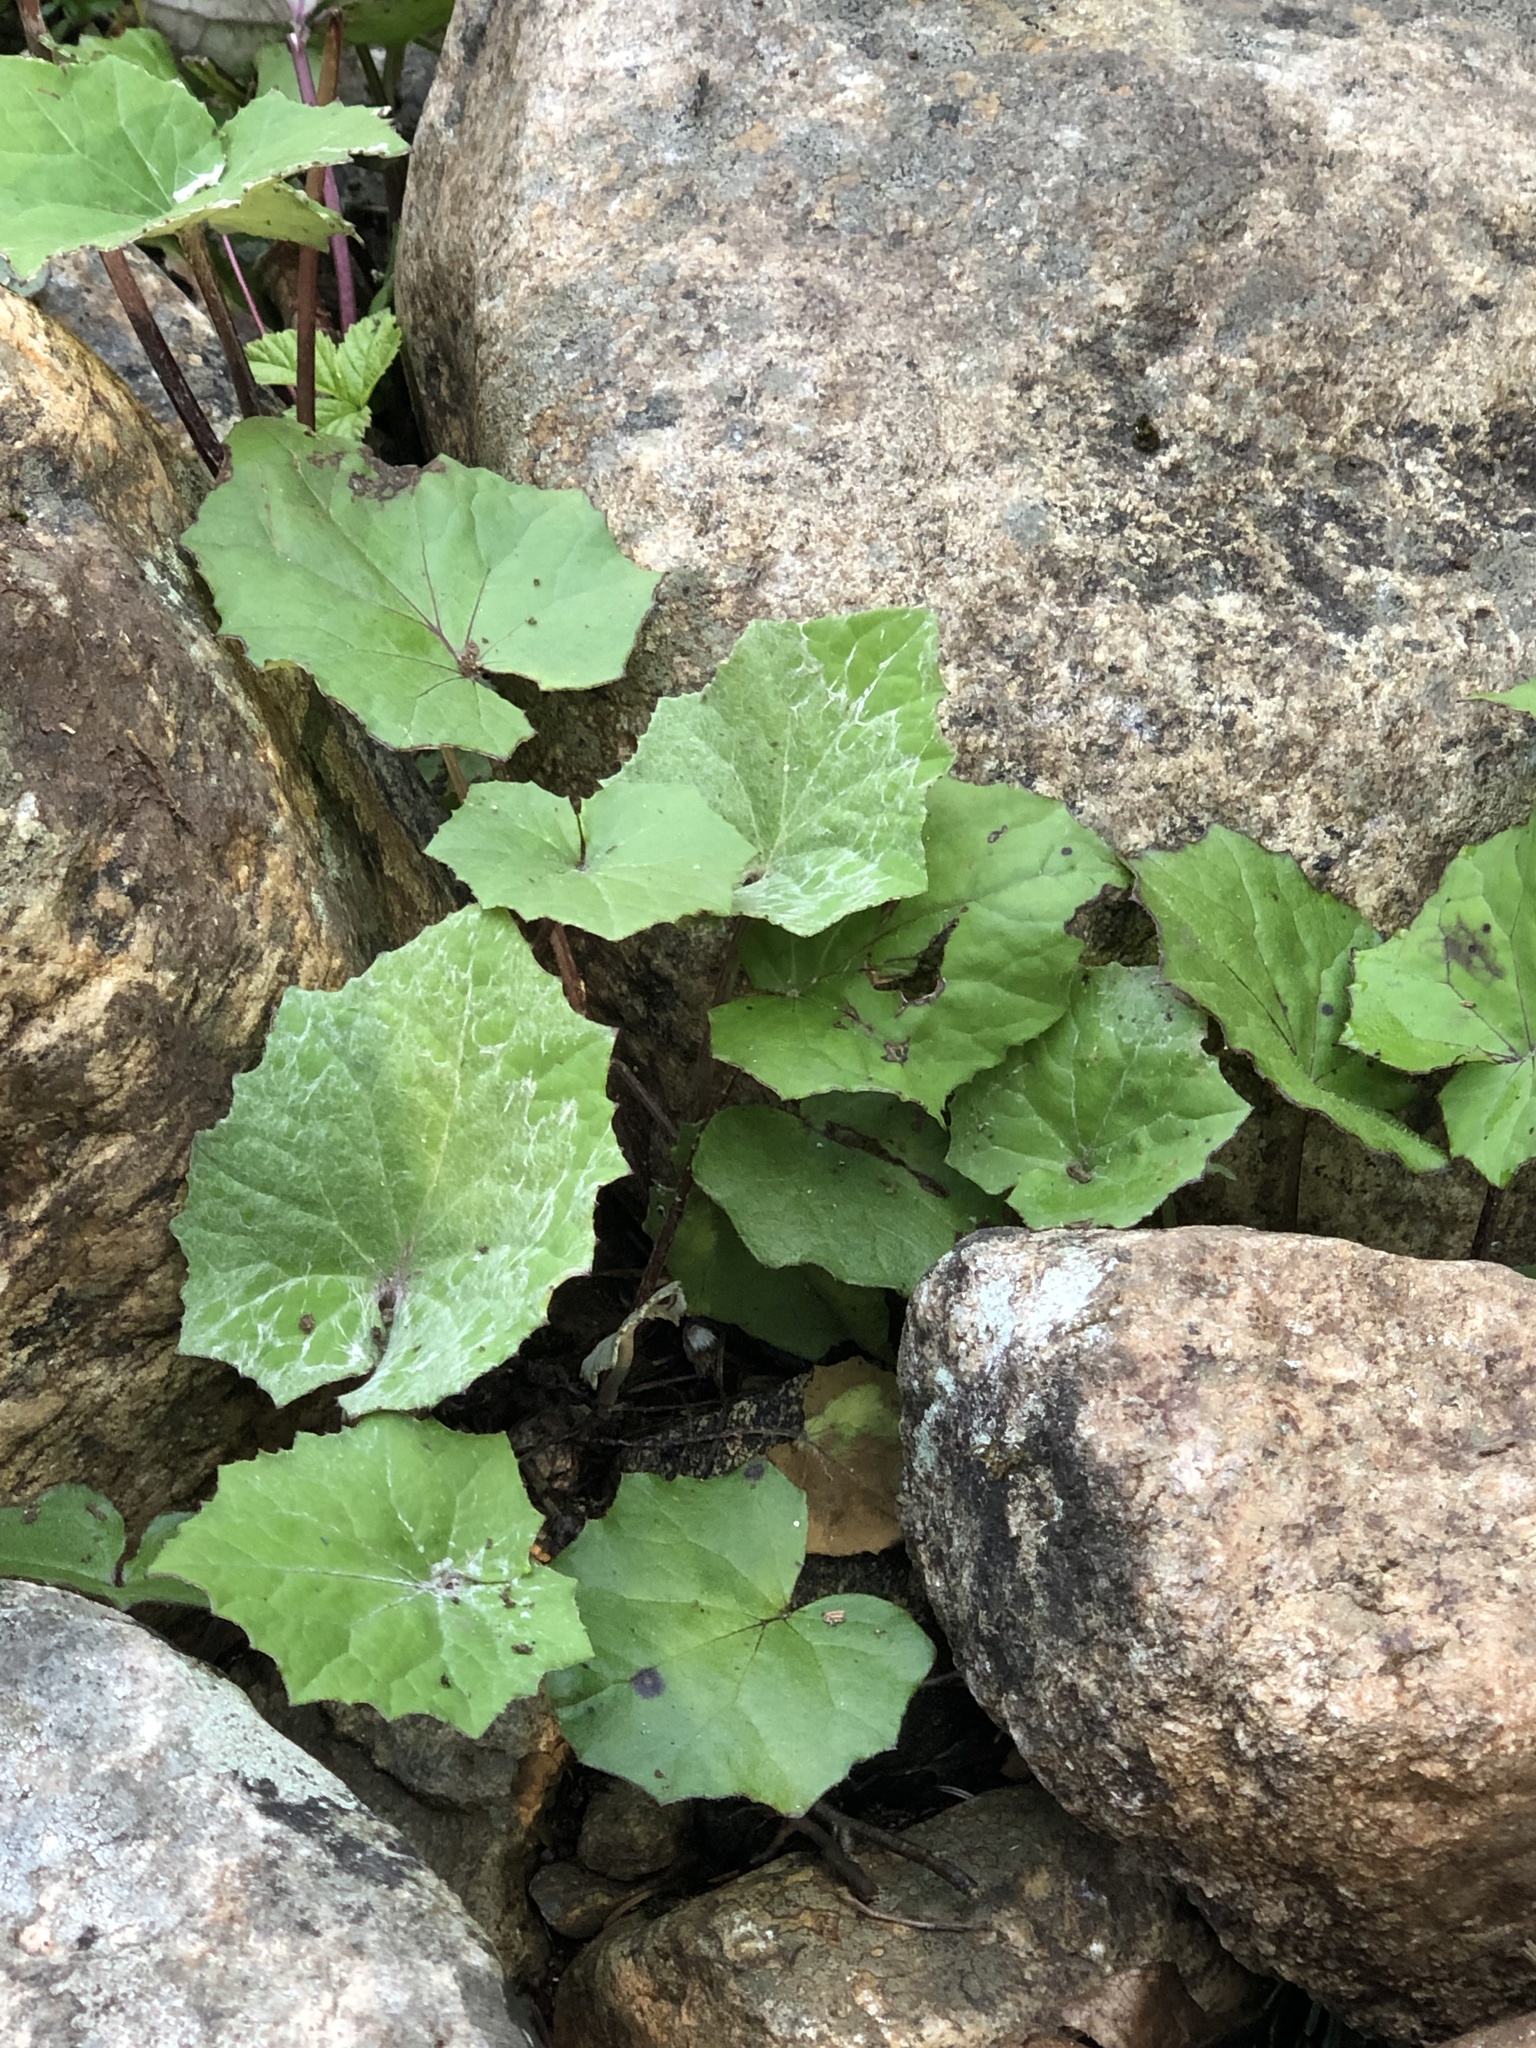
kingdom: Plantae
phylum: Tracheophyta
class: Magnoliopsida
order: Asterales
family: Asteraceae
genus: Tussilago
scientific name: Tussilago farfara
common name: Coltsfoot
